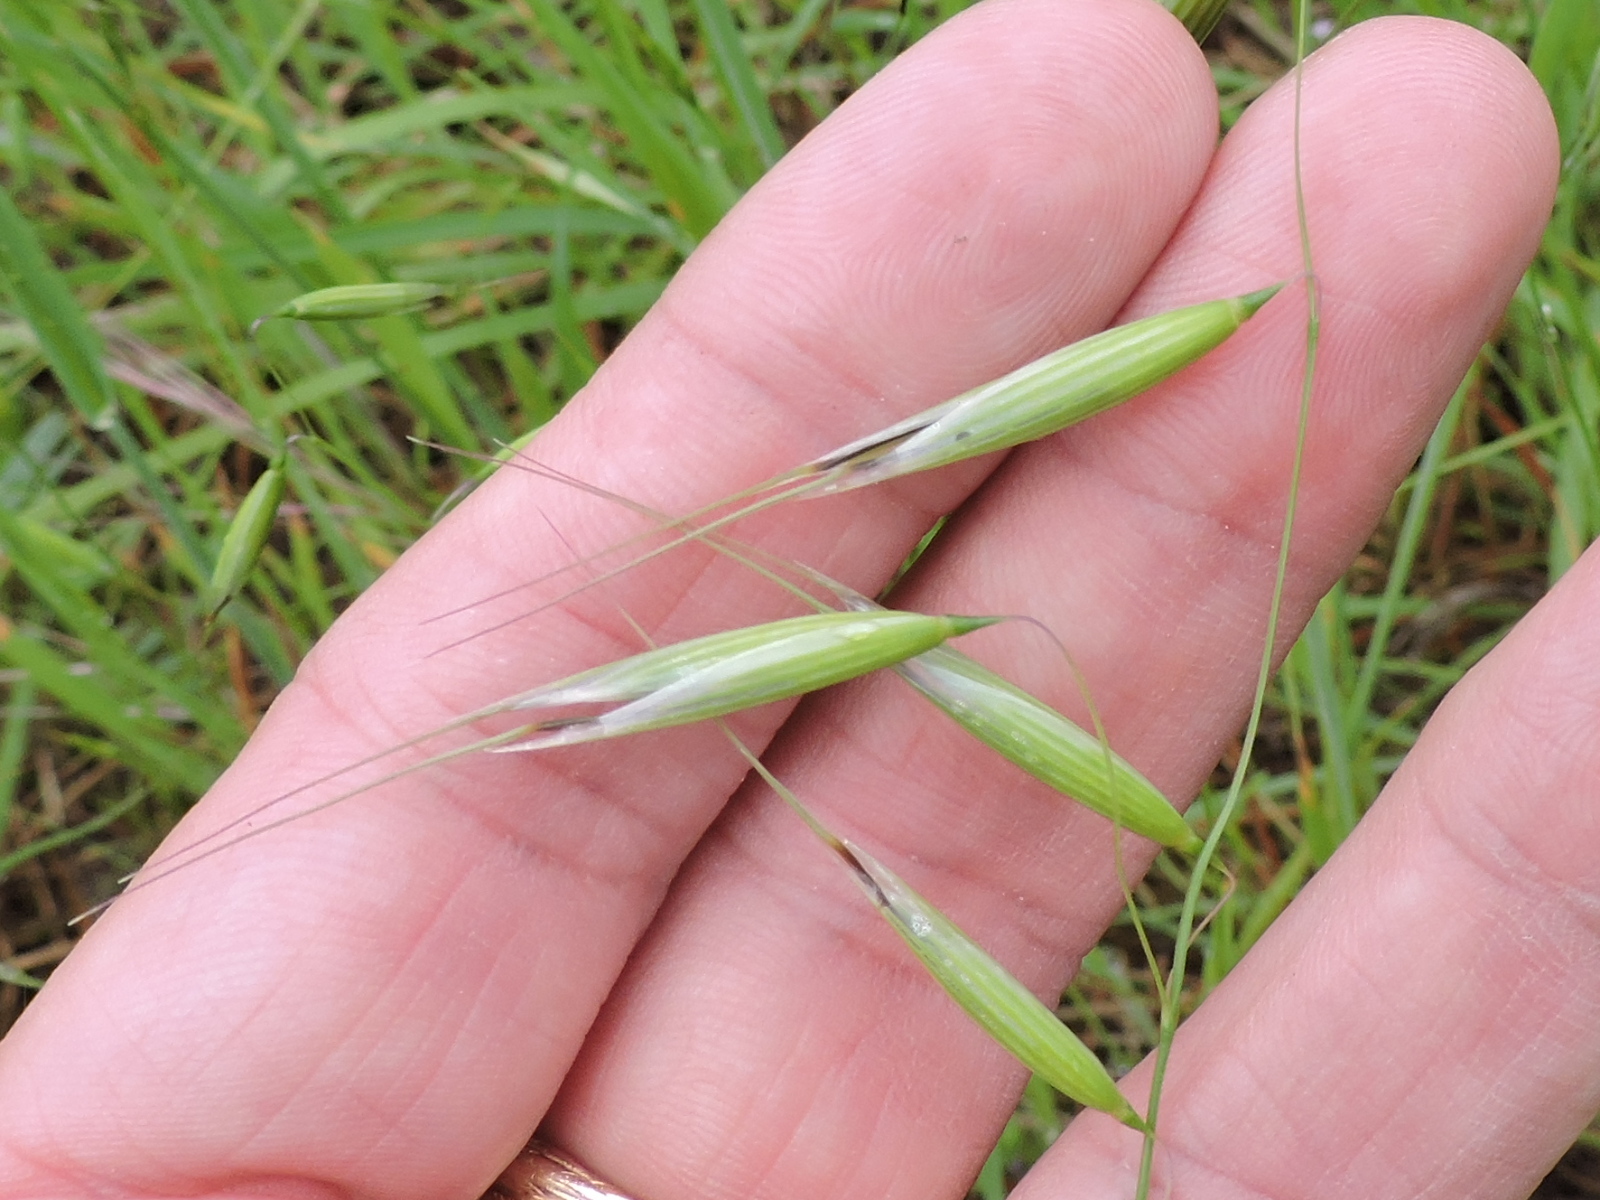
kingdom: Plantae
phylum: Tracheophyta
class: Liliopsida
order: Poales
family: Poaceae
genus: Avena
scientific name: Avena sativa
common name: Oat
